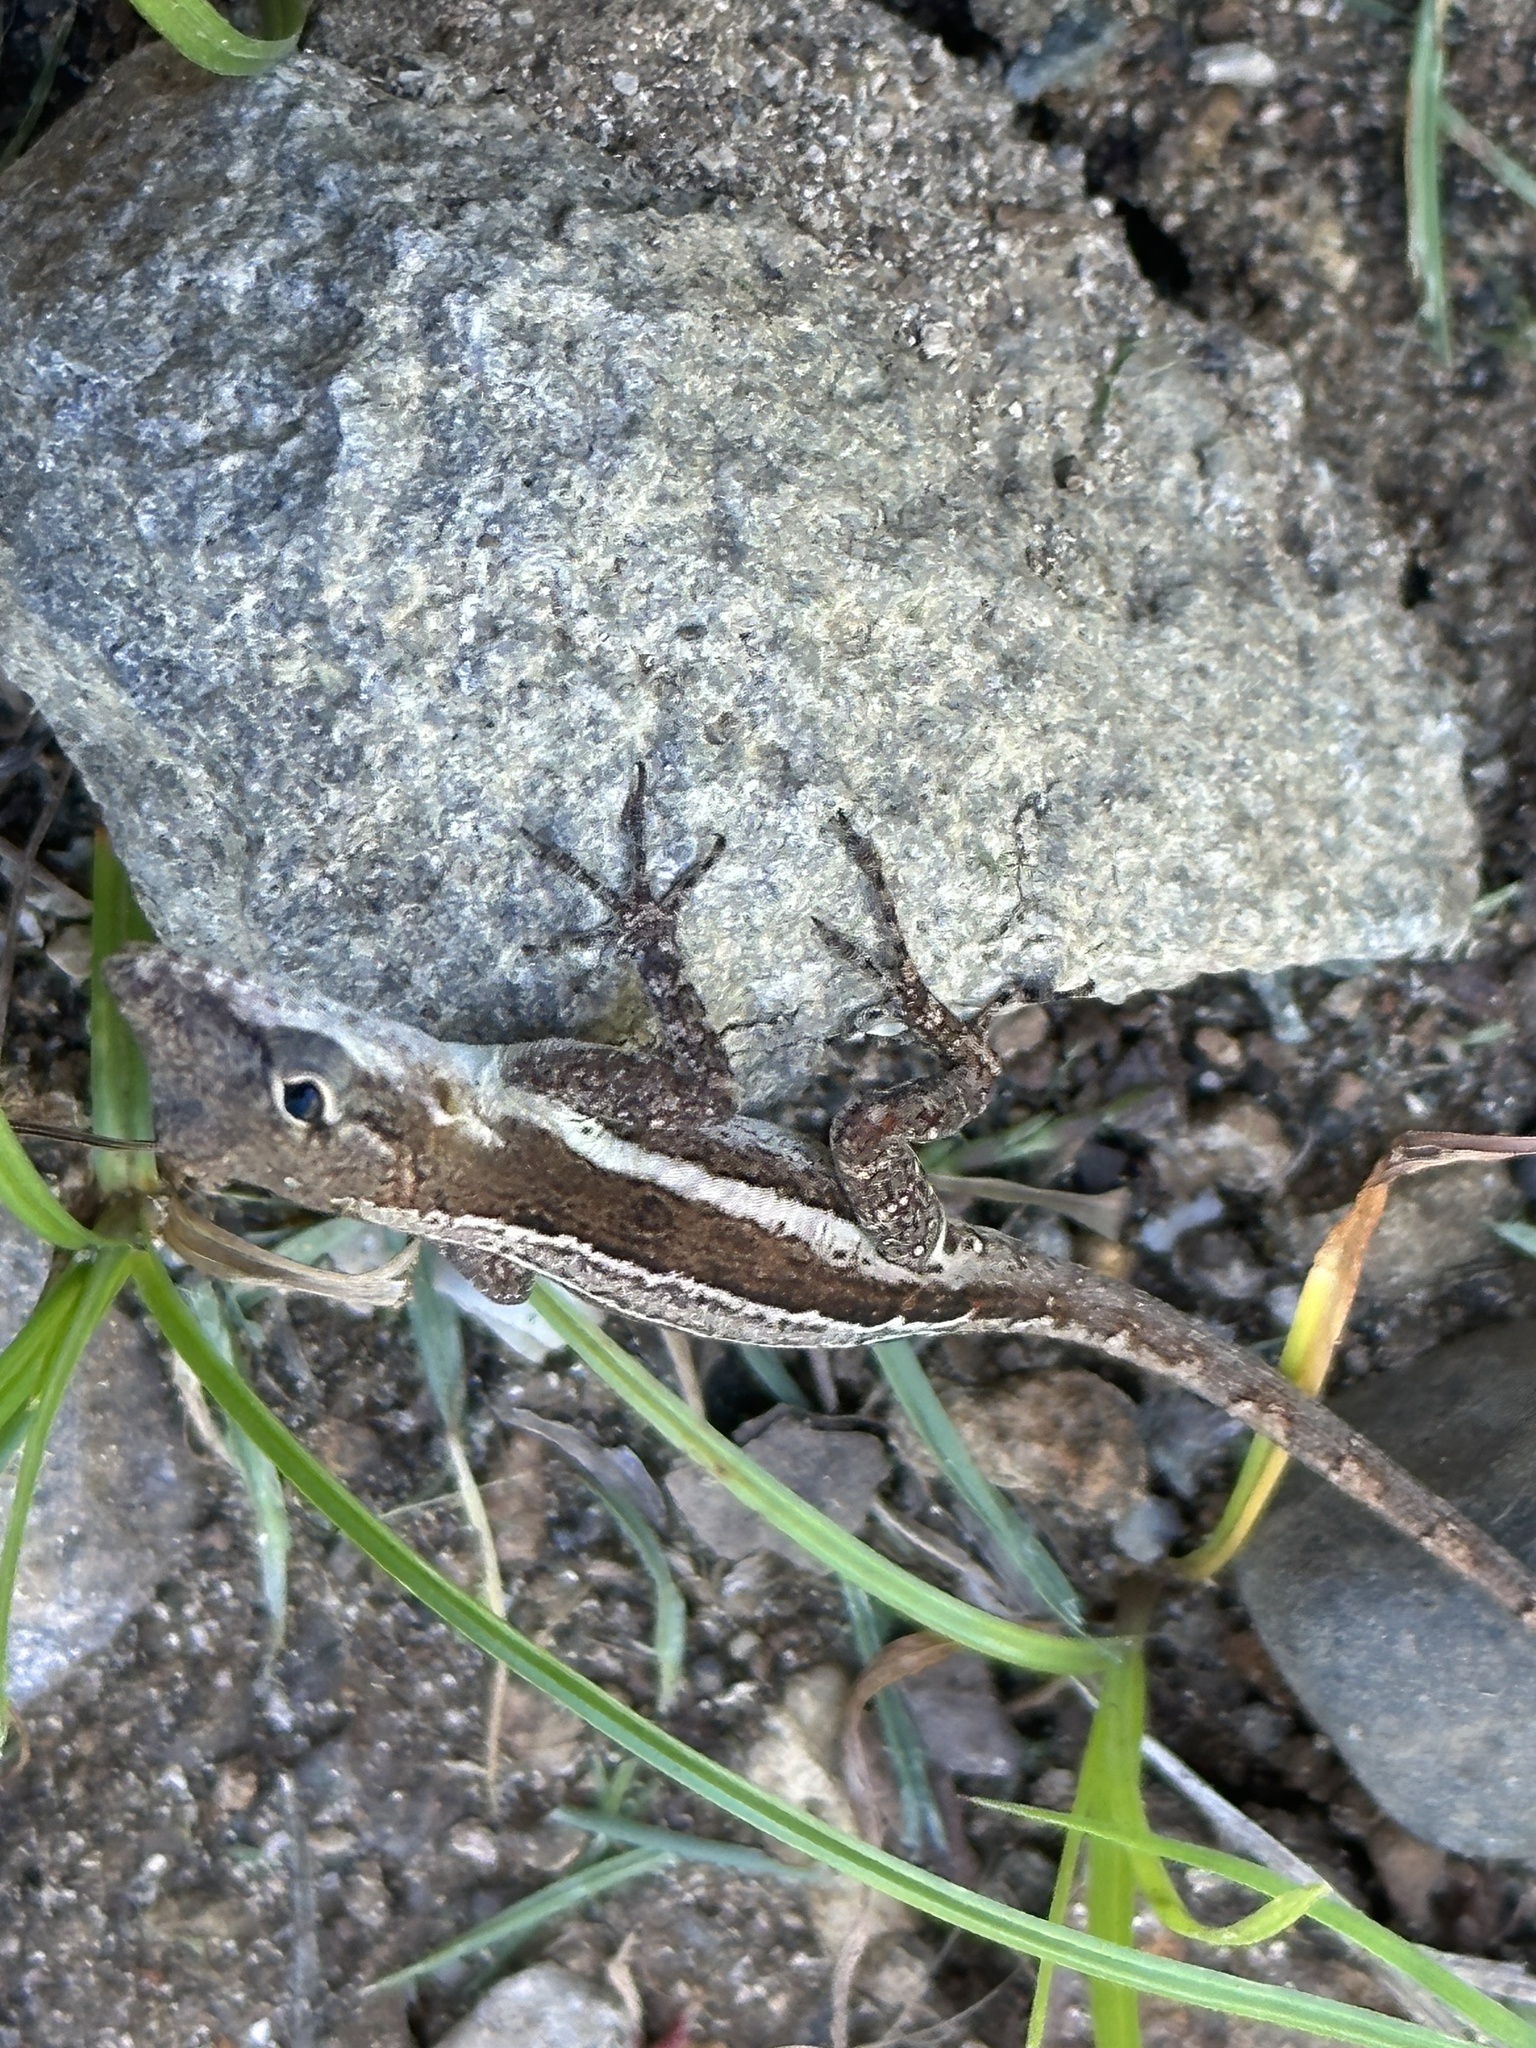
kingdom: Animalia
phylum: Chordata
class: Squamata
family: Dactyloidae
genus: Anolis
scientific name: Anolis gingivinus
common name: Anguilla anole
